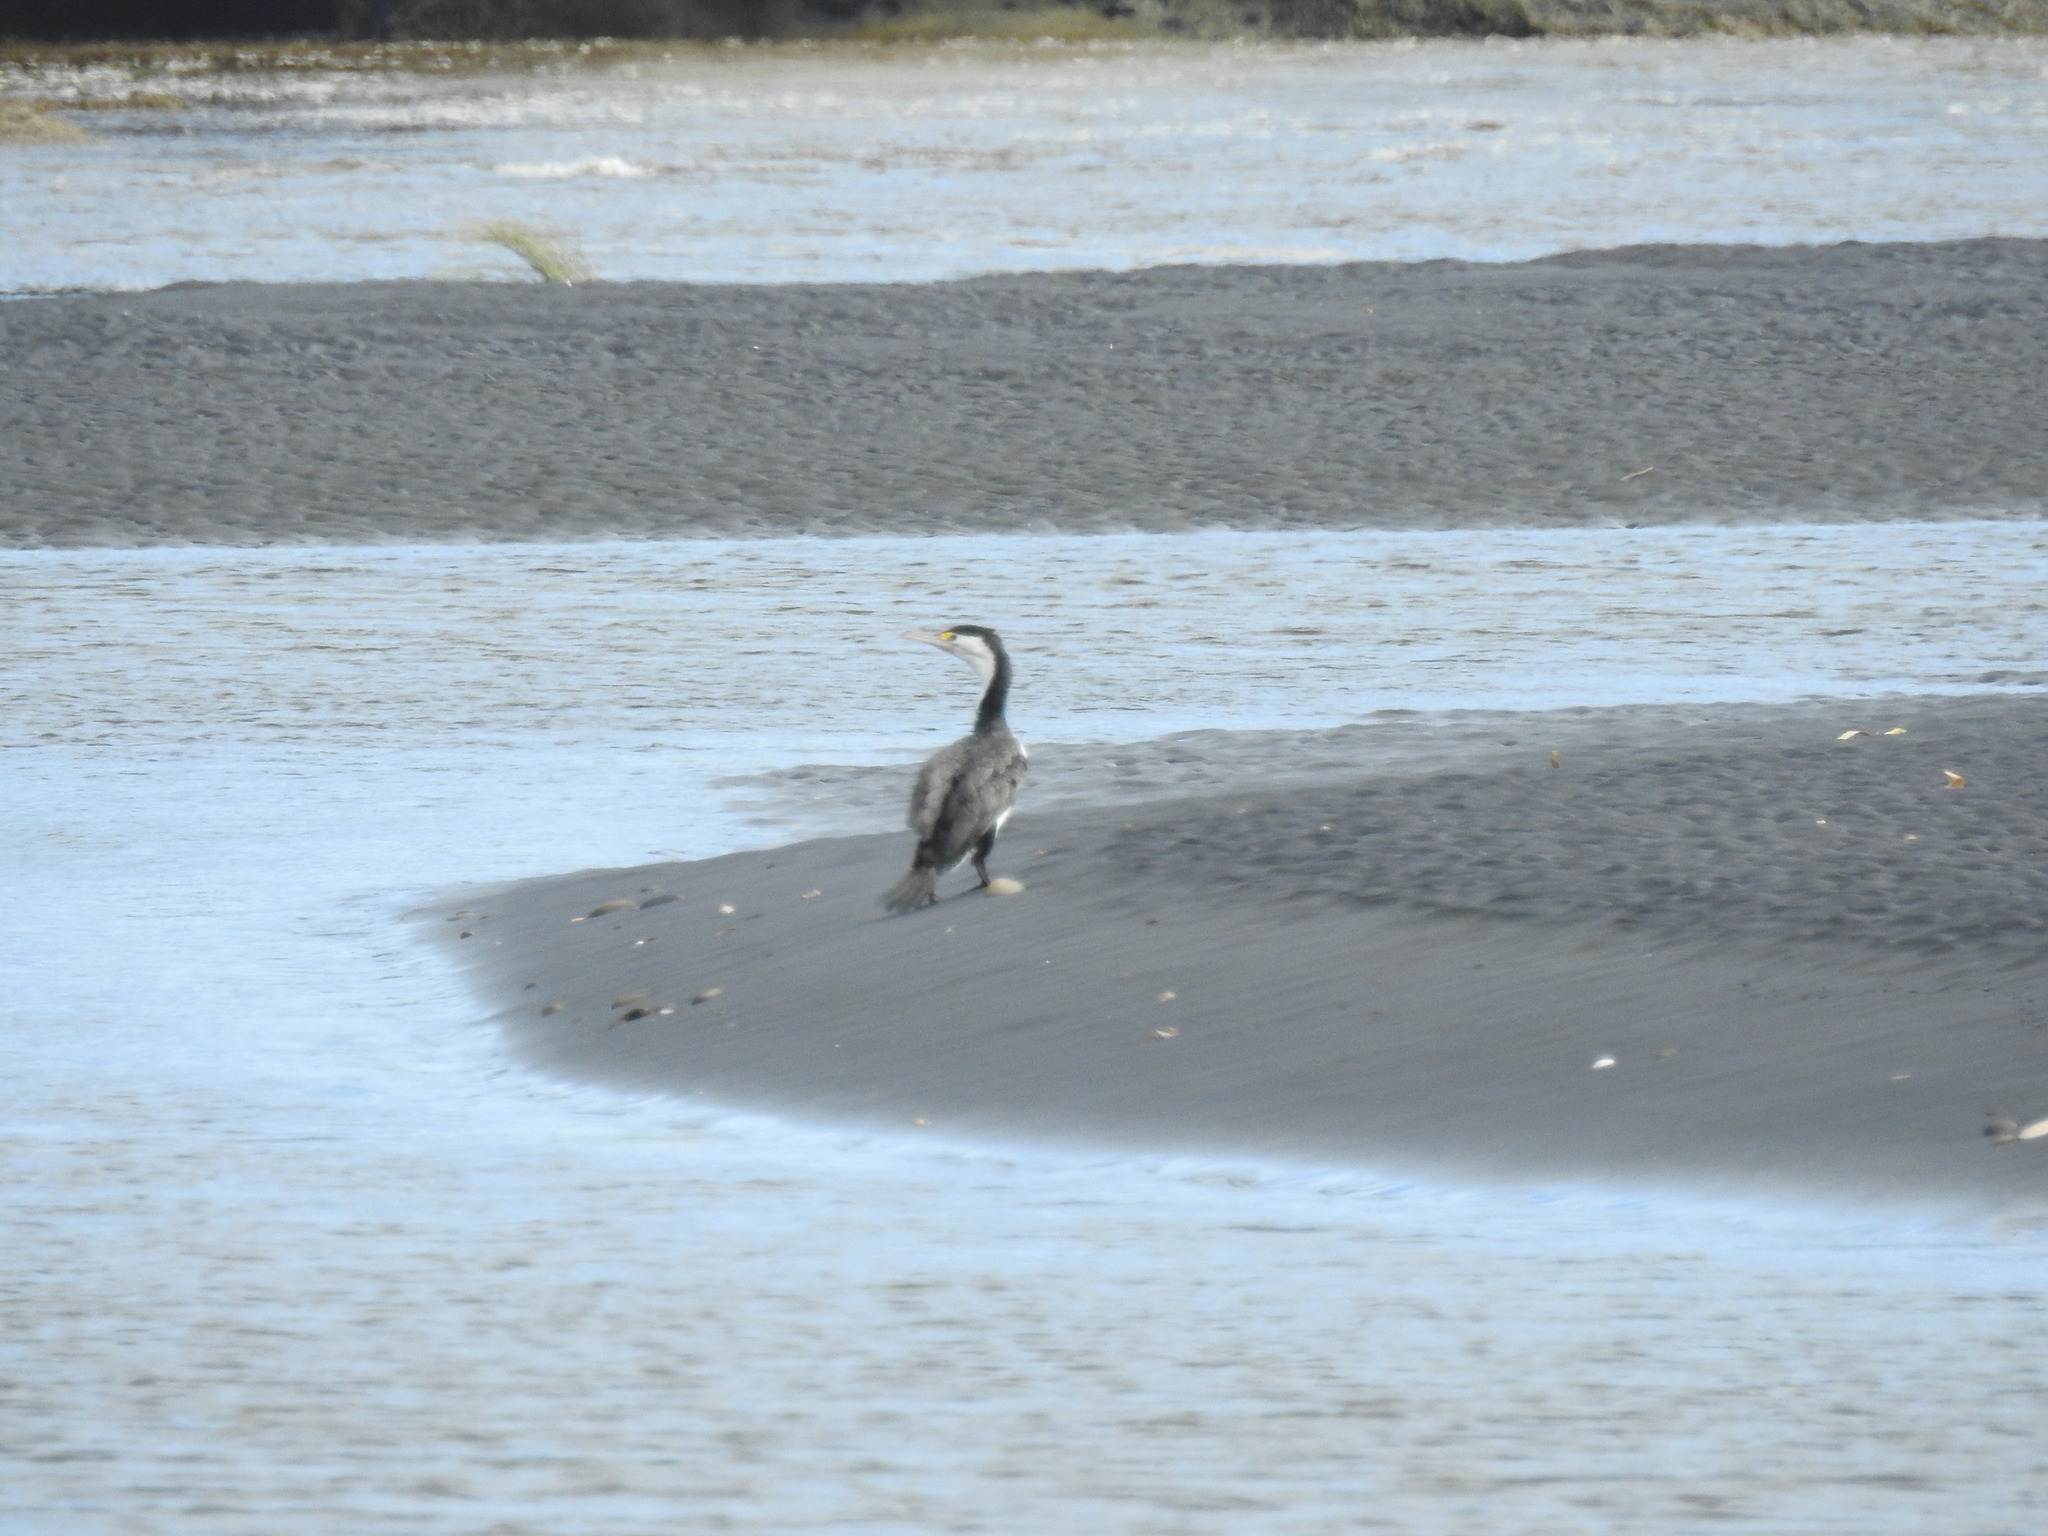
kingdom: Animalia
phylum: Chordata
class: Aves
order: Suliformes
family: Phalacrocoracidae
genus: Phalacrocorax
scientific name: Phalacrocorax varius
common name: Pied cormorant
